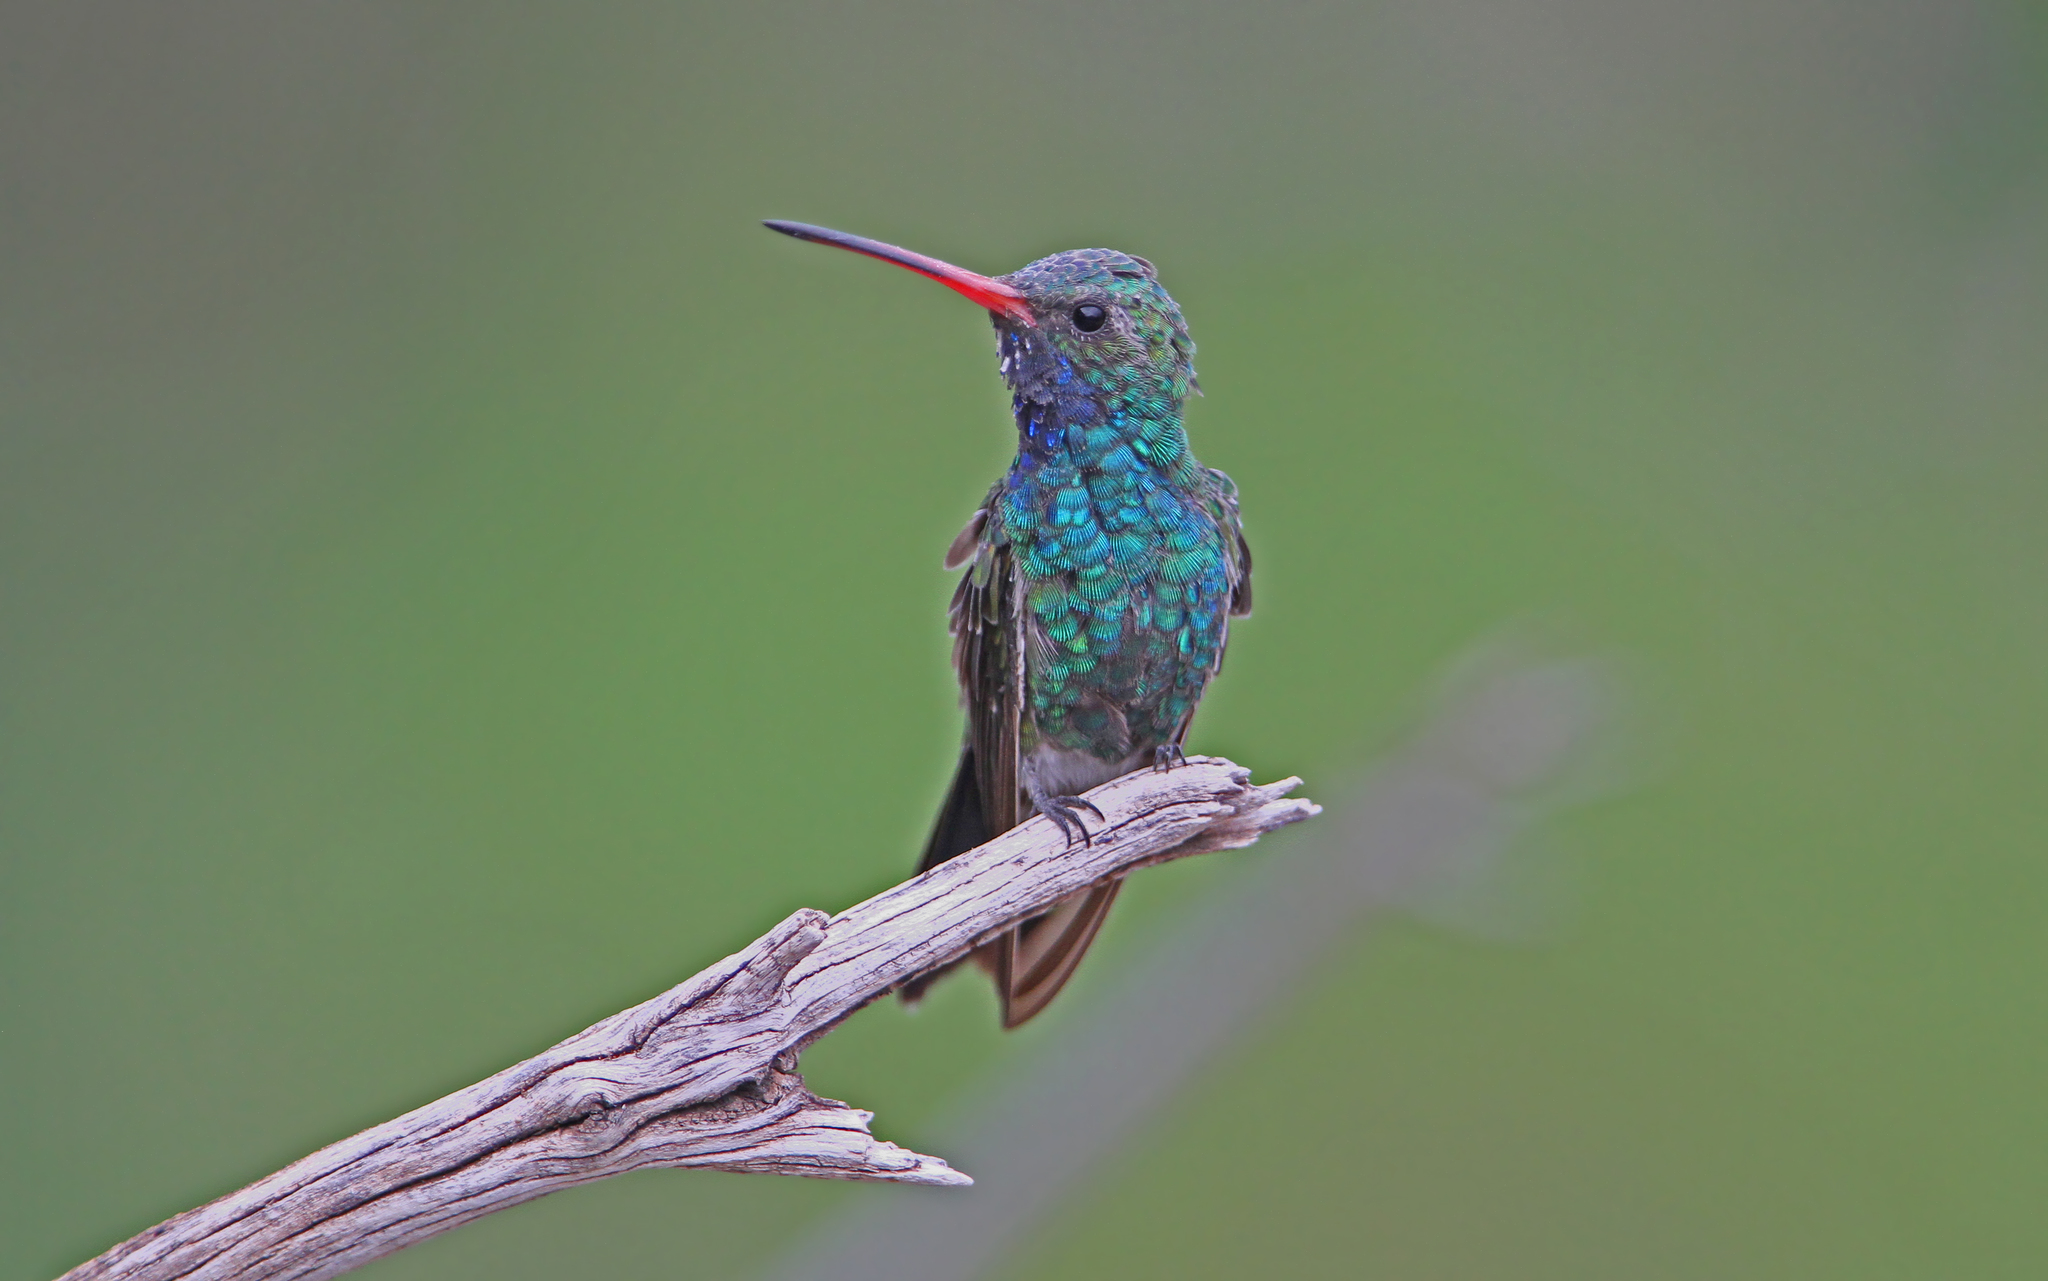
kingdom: Animalia
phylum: Chordata
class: Aves
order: Apodiformes
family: Trochilidae
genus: Cynanthus
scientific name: Cynanthus latirostris
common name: Broad-billed hummingbird
